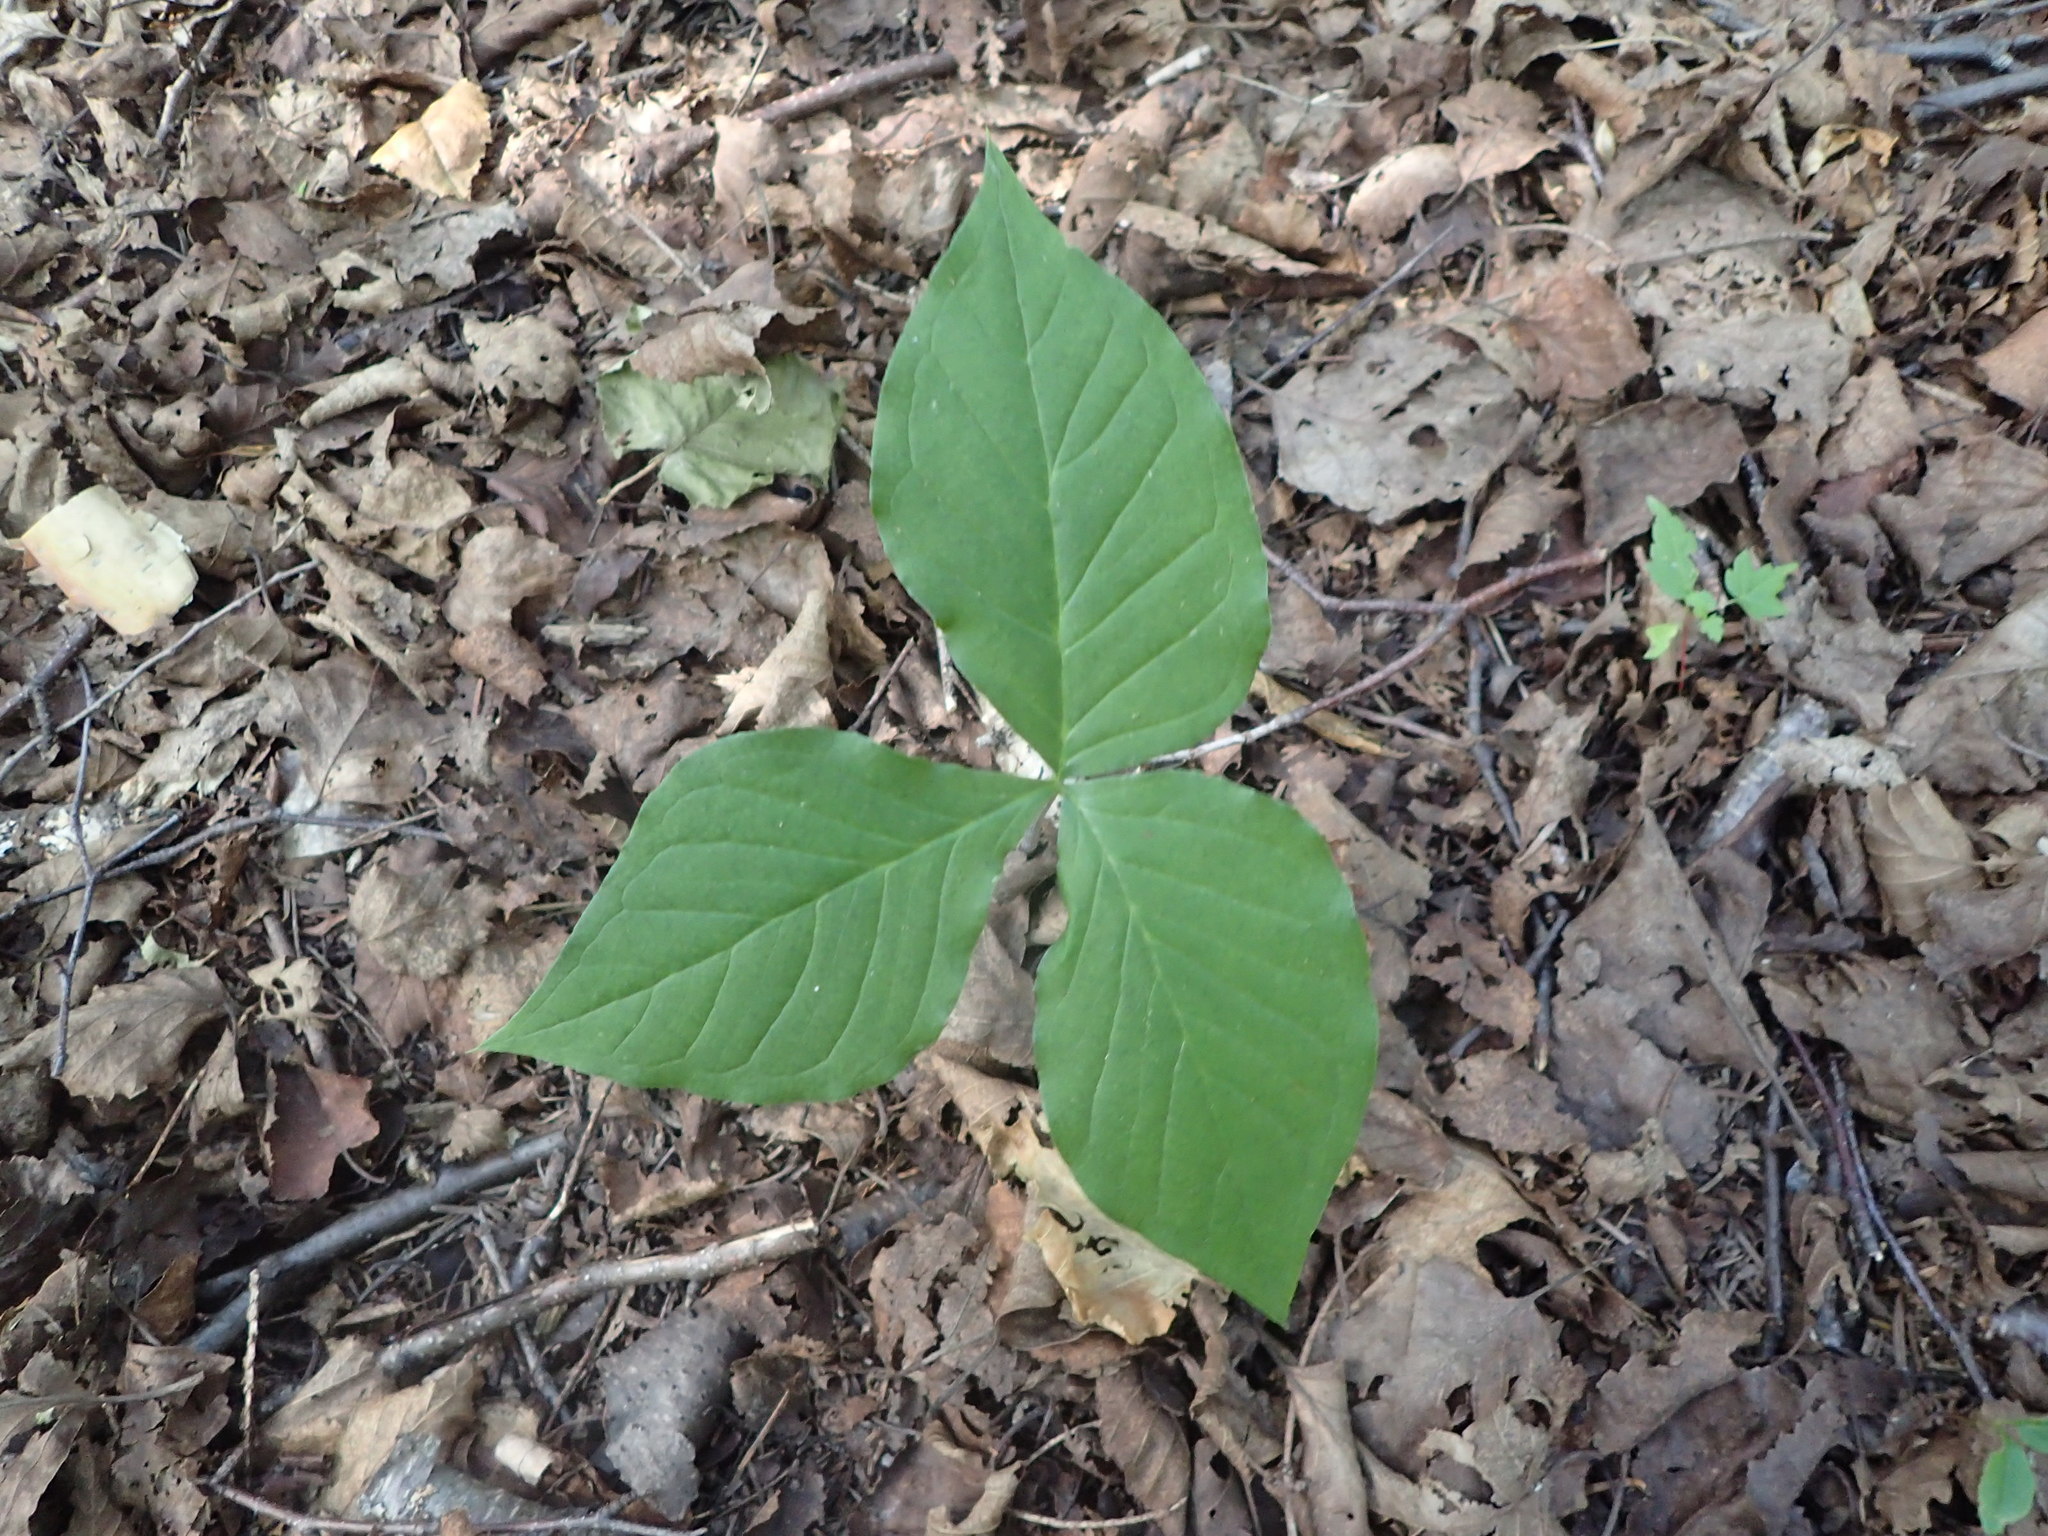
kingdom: Plantae
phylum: Tracheophyta
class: Liliopsida
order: Alismatales
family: Araceae
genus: Arisaema
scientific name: Arisaema triphyllum
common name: Jack-in-the-pulpit
